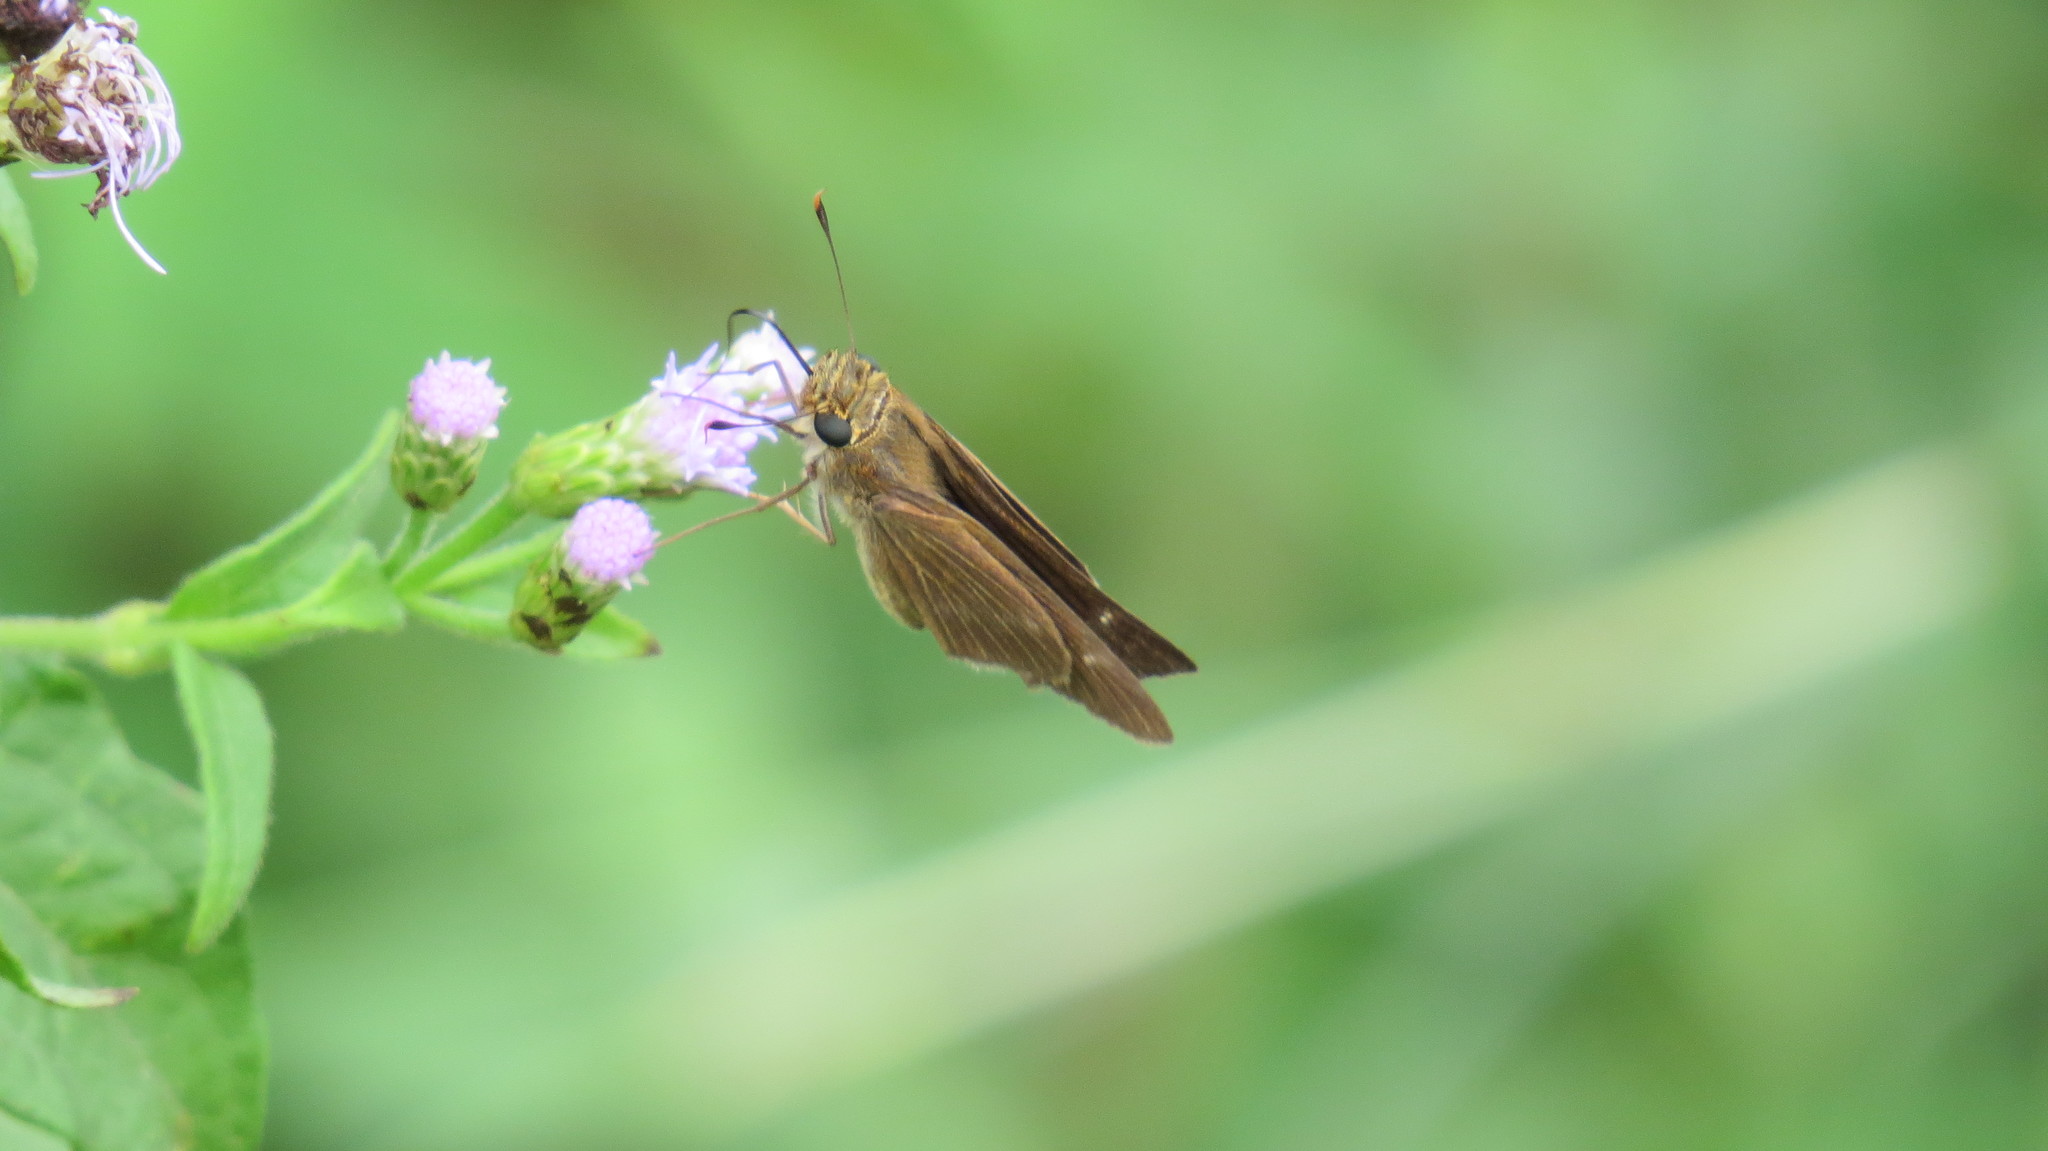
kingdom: Animalia
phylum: Arthropoda
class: Insecta
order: Lepidoptera
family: Hesperiidae
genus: Panoquina
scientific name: Panoquina ocola
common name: Ocola skipper
